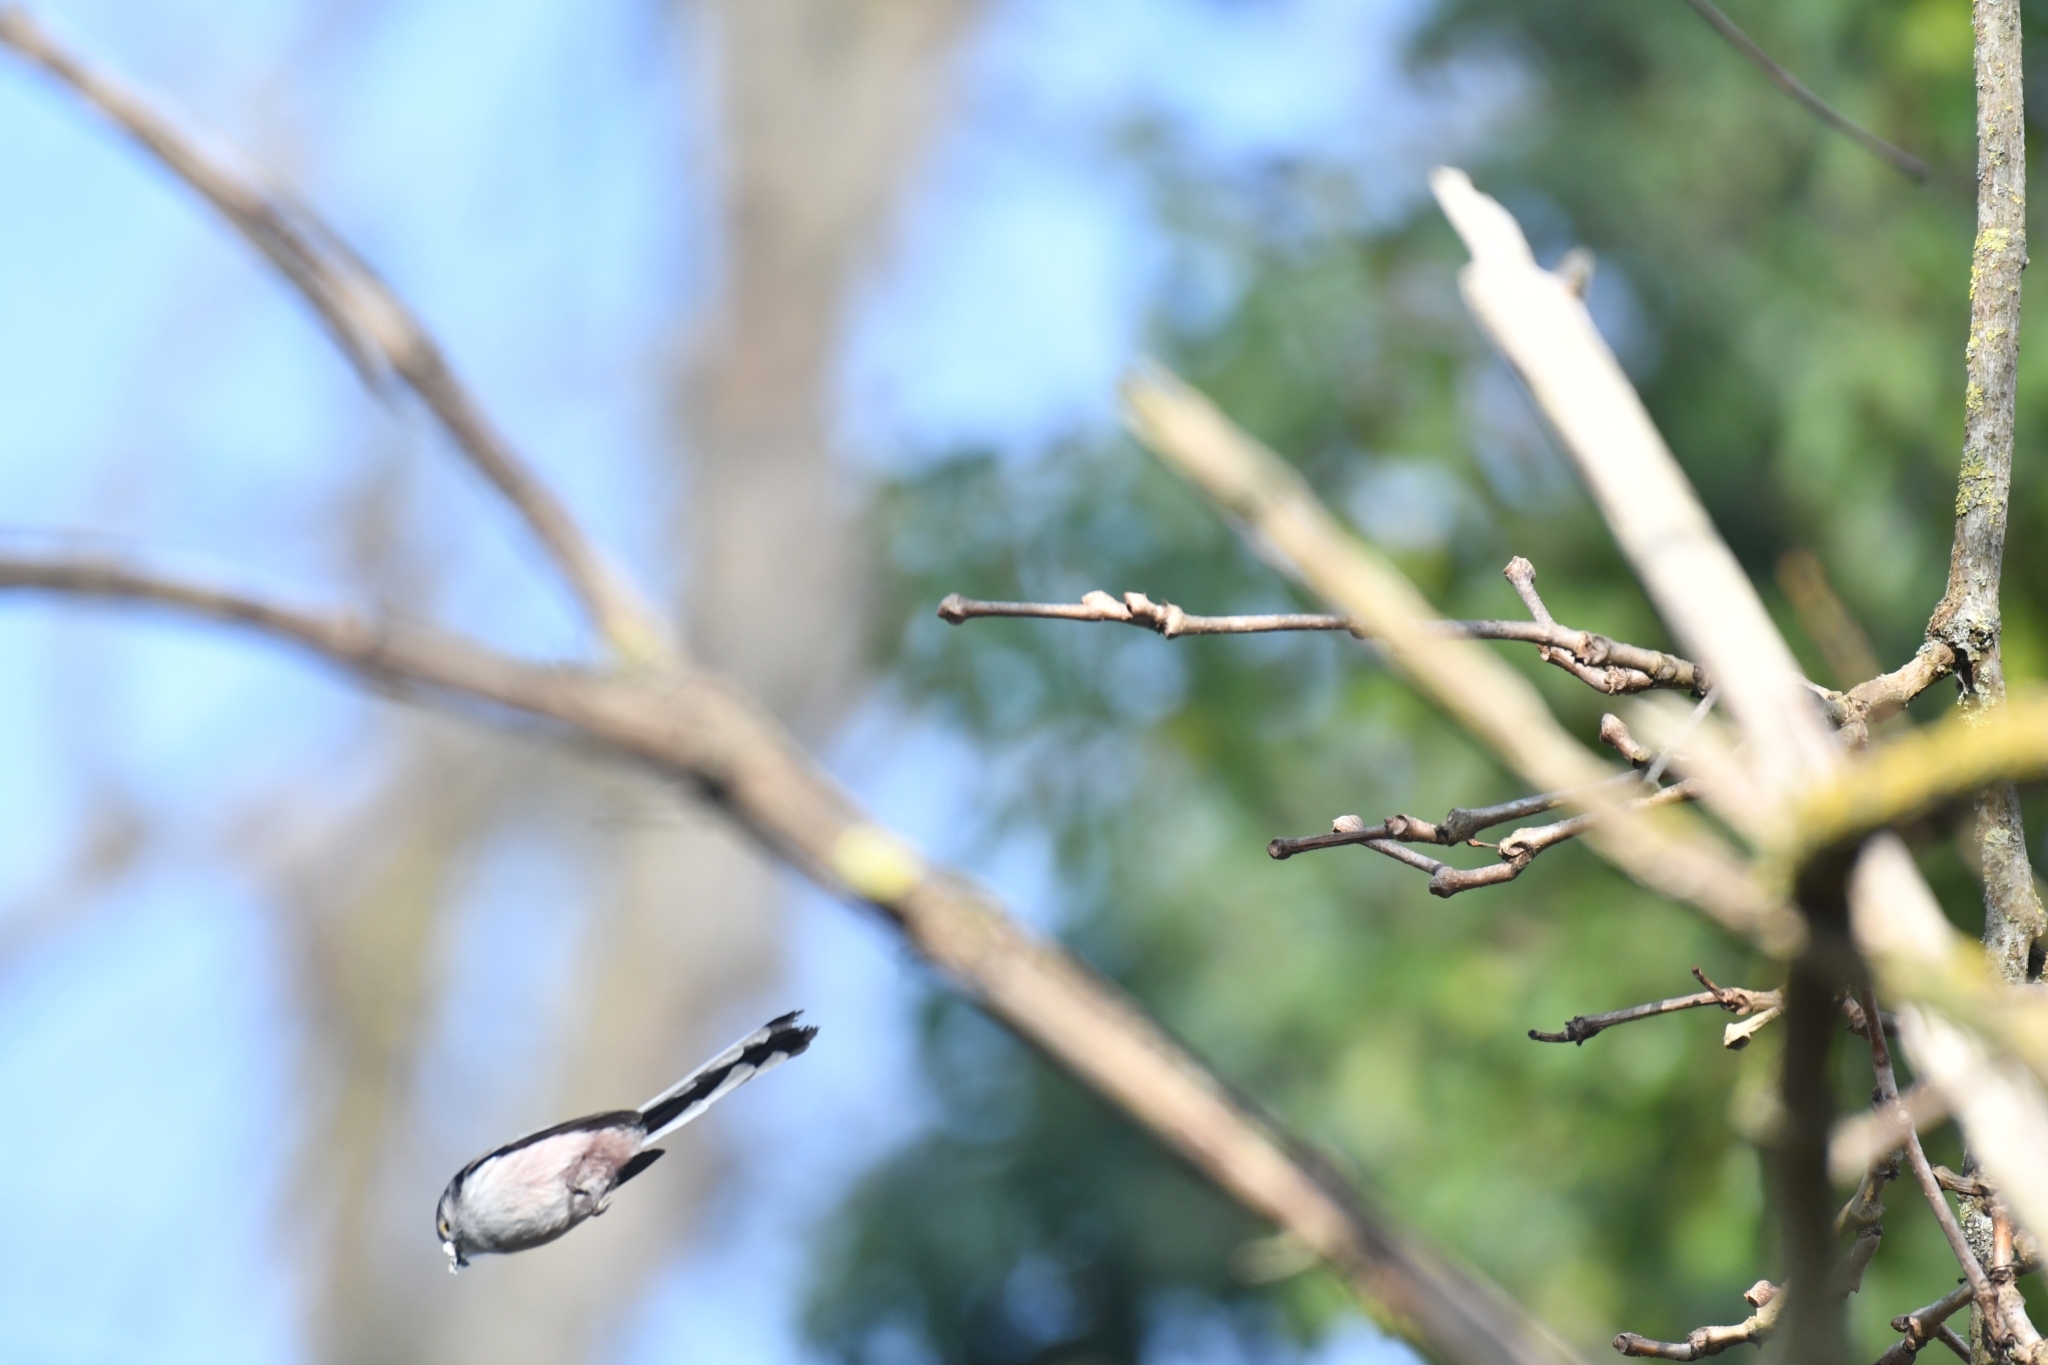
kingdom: Animalia
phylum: Chordata
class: Aves
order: Passeriformes
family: Aegithalidae
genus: Aegithalos
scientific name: Aegithalos caudatus
